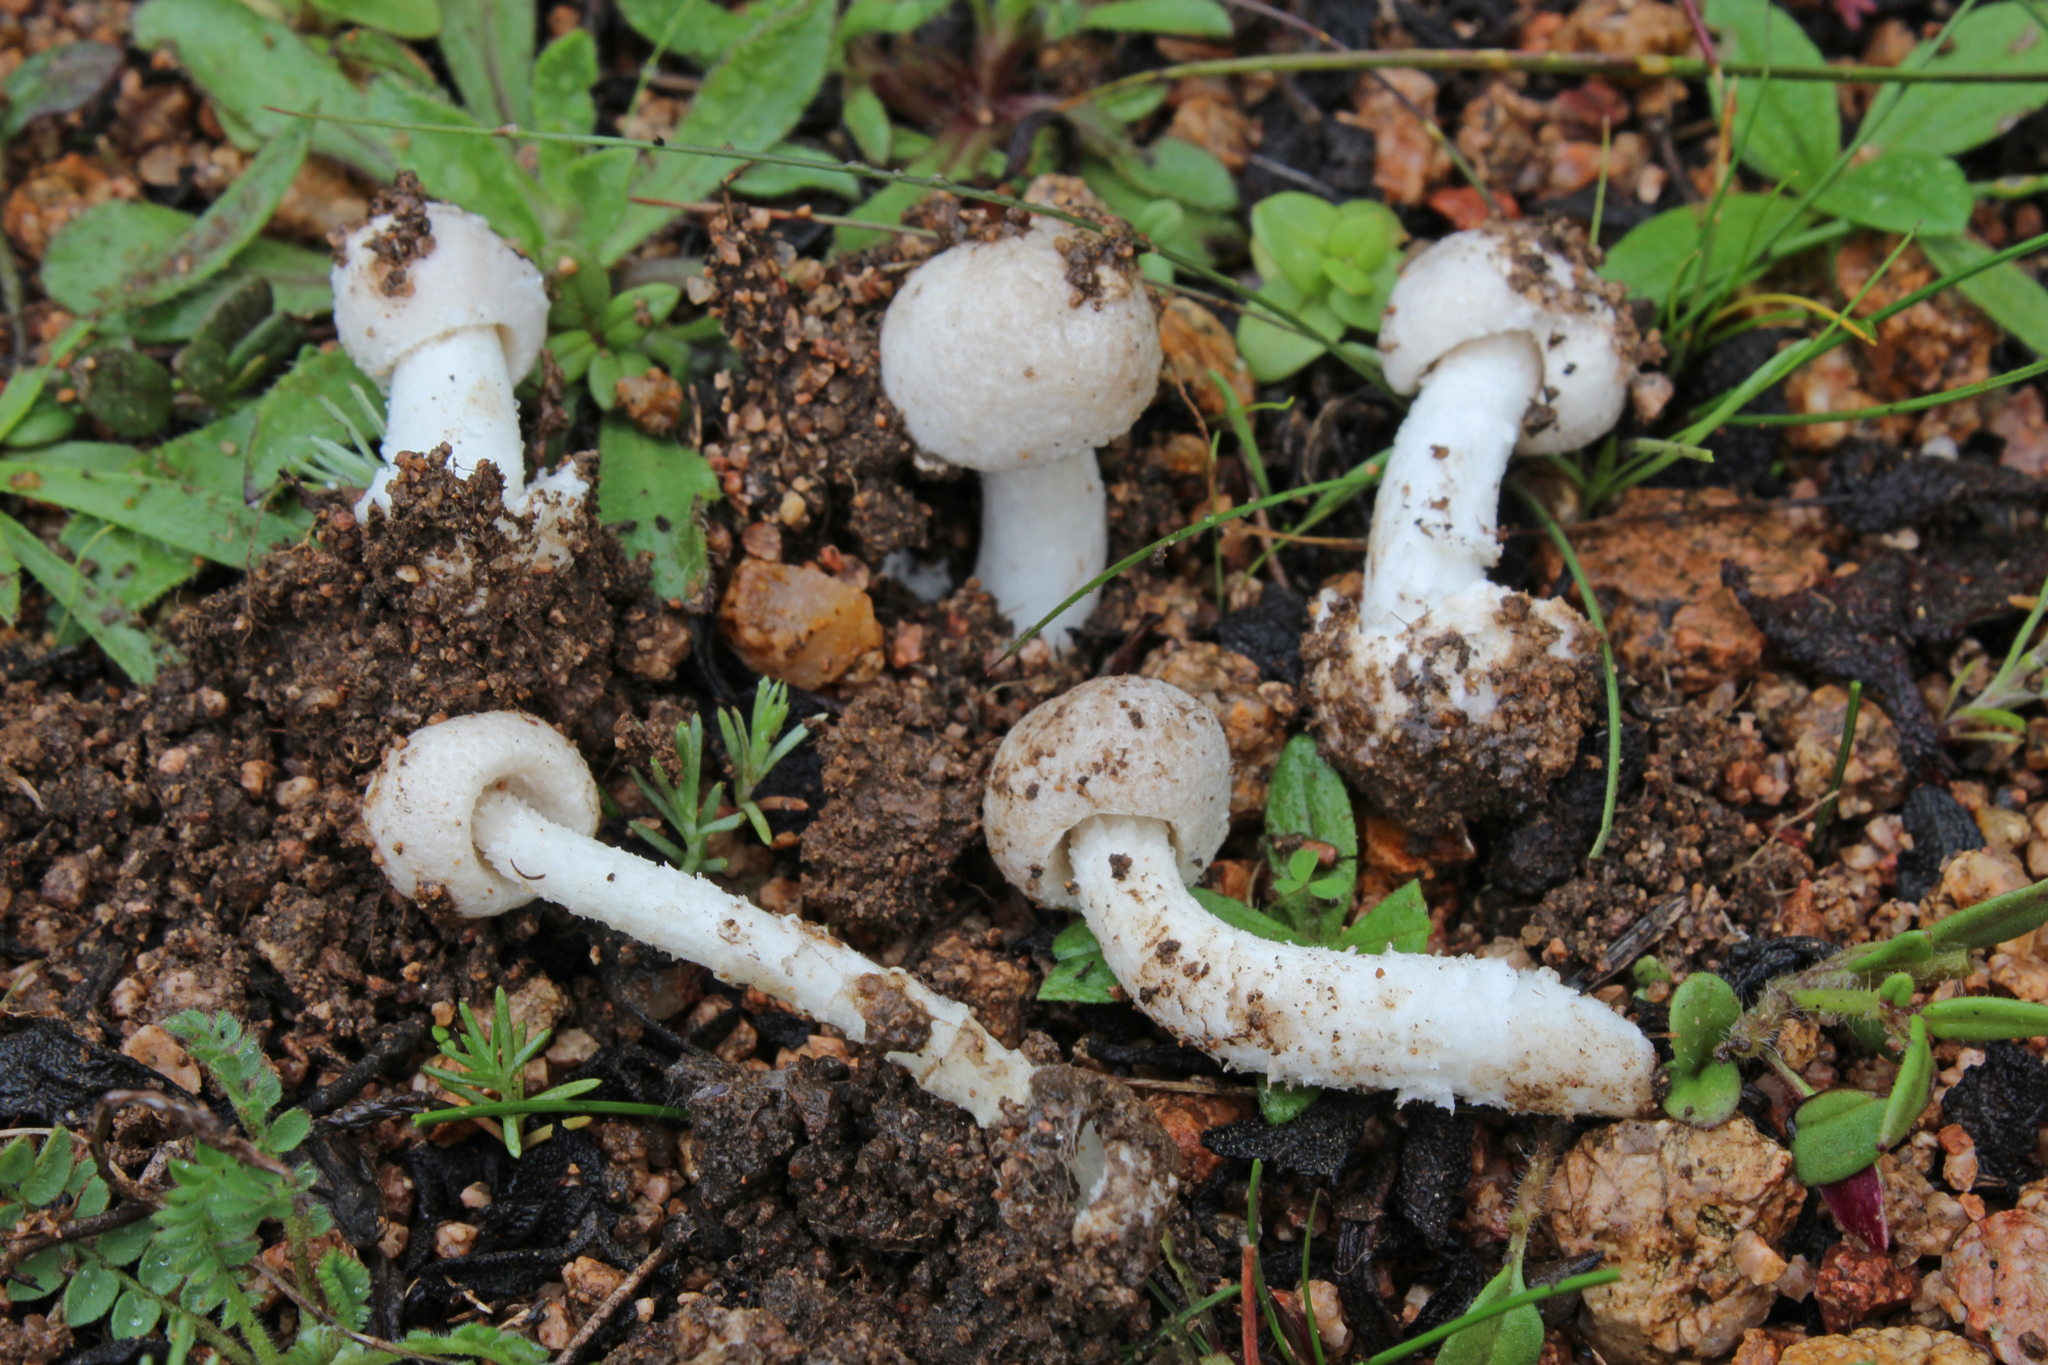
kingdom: Fungi
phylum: Basidiomycota
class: Agaricomycetes
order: Agaricales
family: Amanitaceae
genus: Amanita
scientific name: Amanita torrendii
